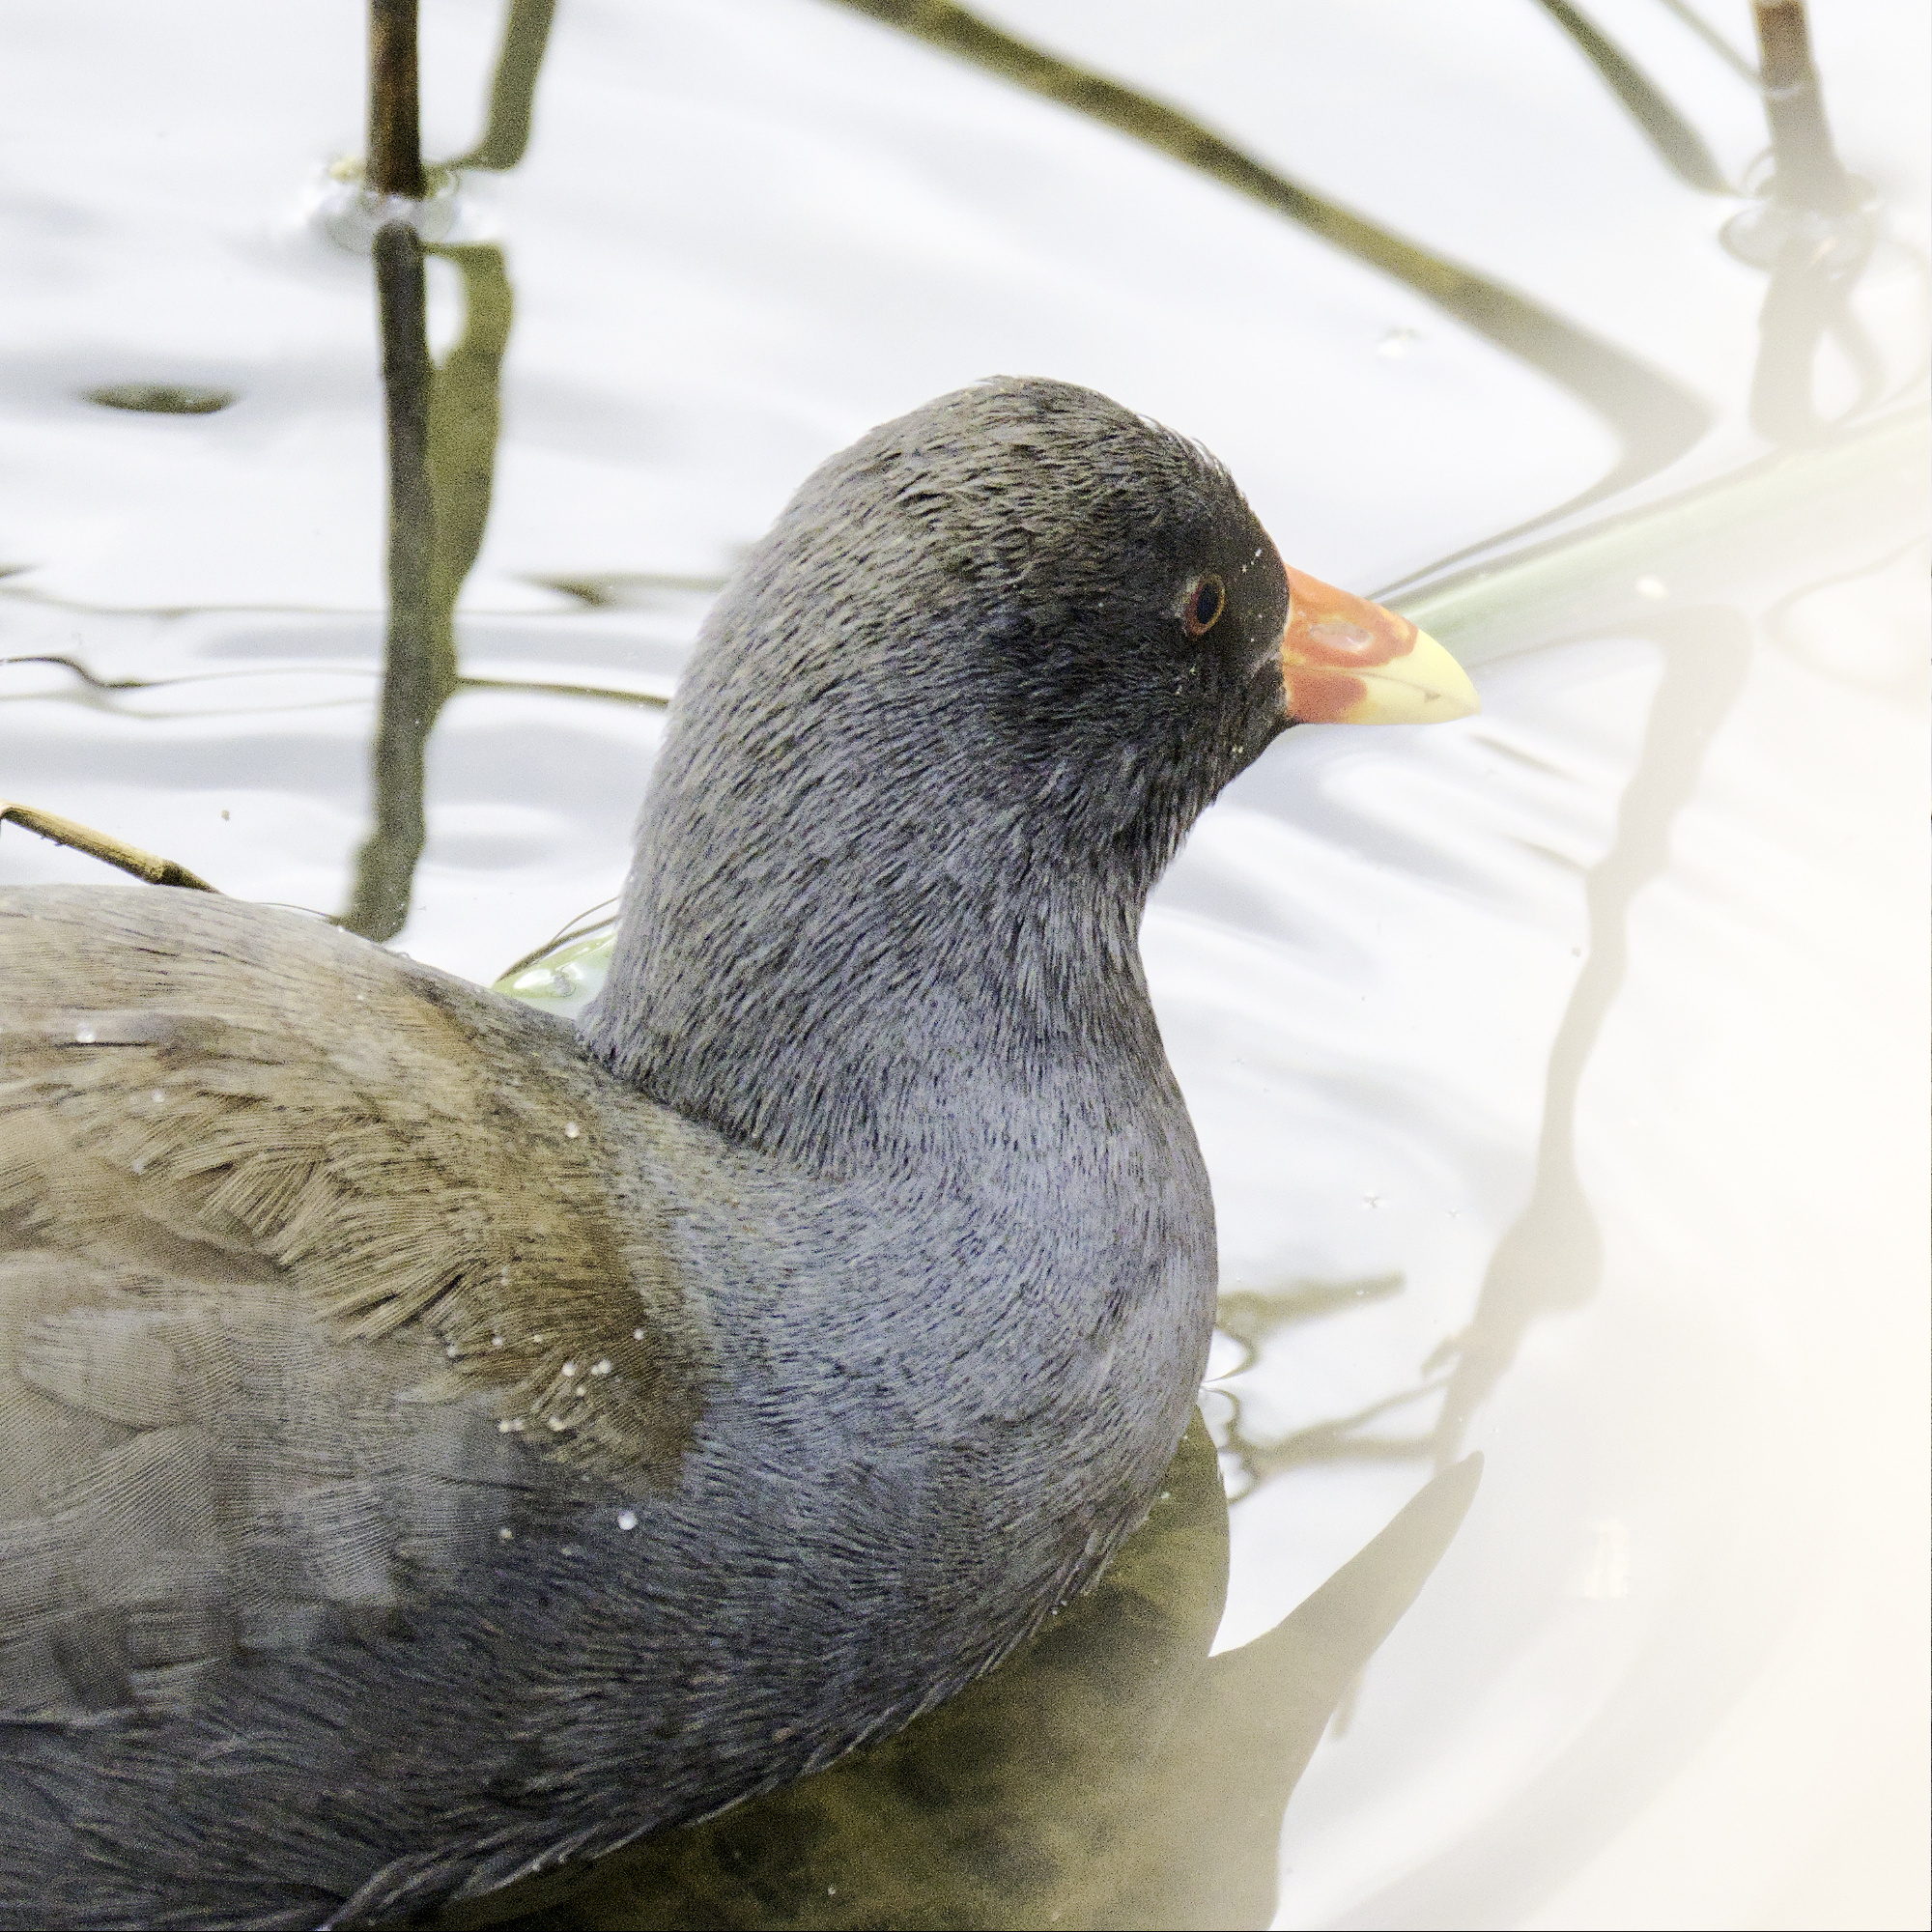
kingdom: Animalia
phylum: Chordata
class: Aves
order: Gruiformes
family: Rallidae
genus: Gallinula
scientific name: Gallinula tenebrosa
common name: Dusky moorhen
